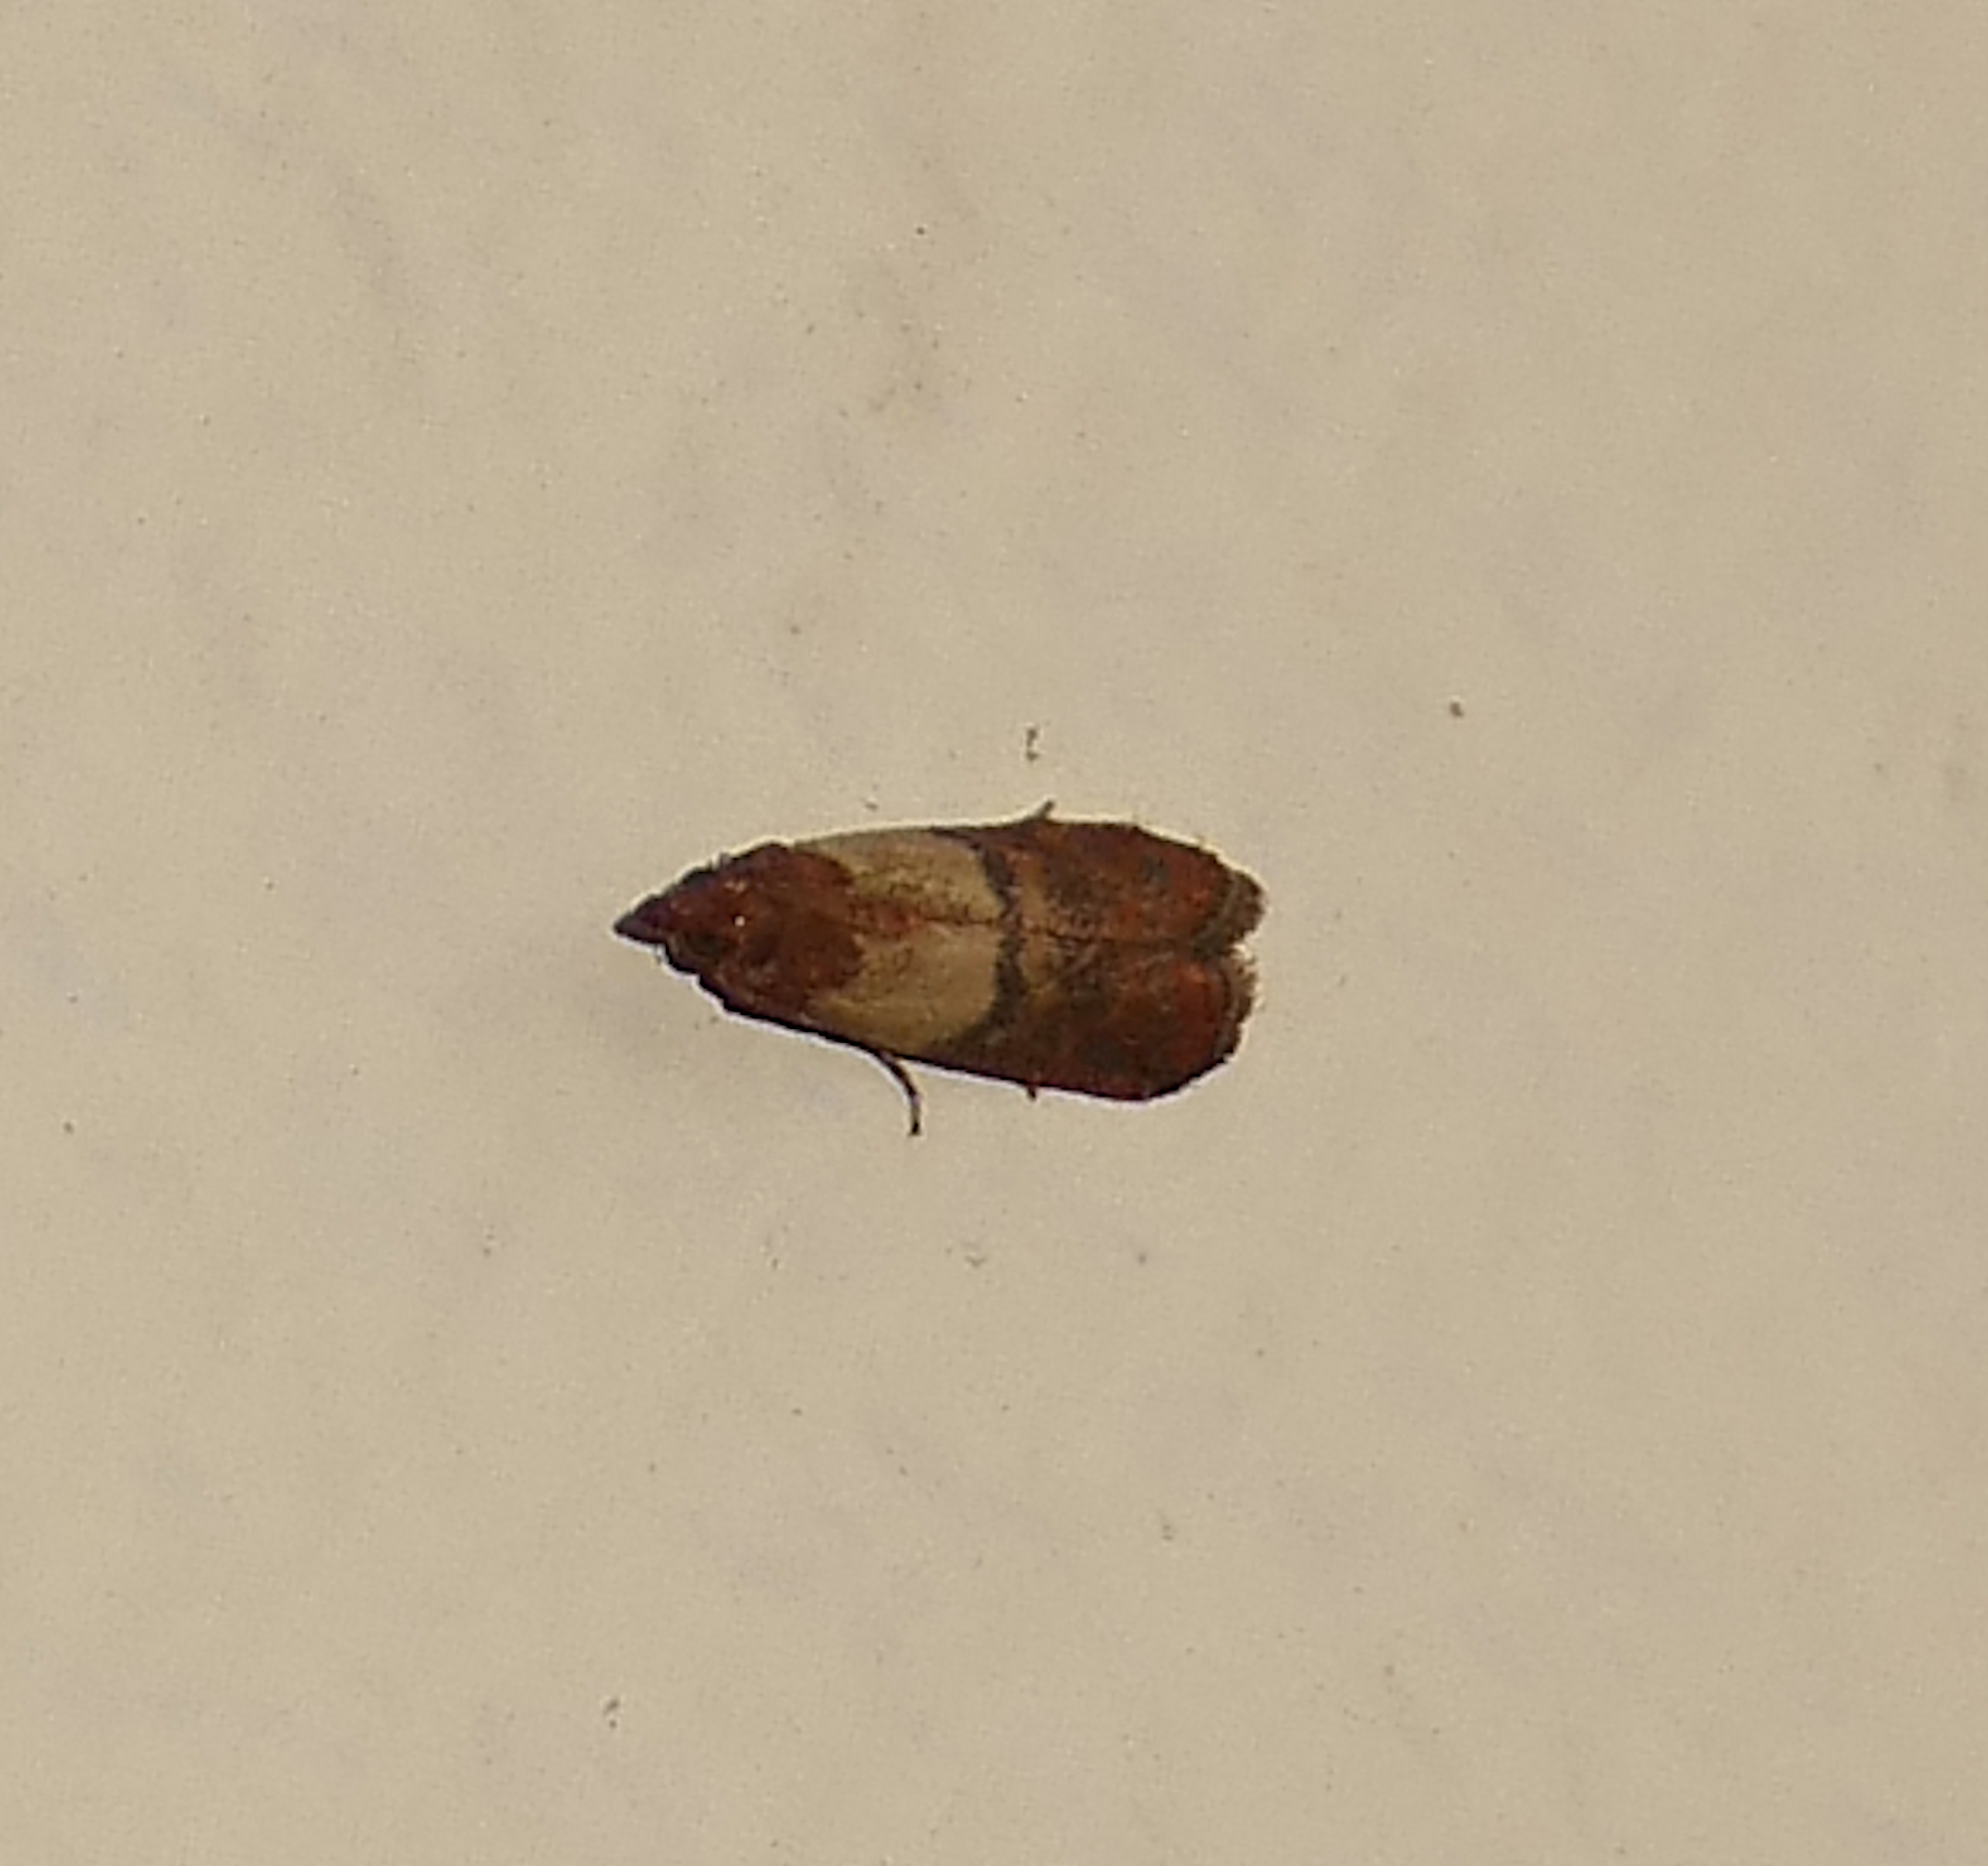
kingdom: Animalia
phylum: Arthropoda
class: Insecta
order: Lepidoptera
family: Pyralidae
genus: Plodia
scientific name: Plodia interpunctella
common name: Indian meal moth
